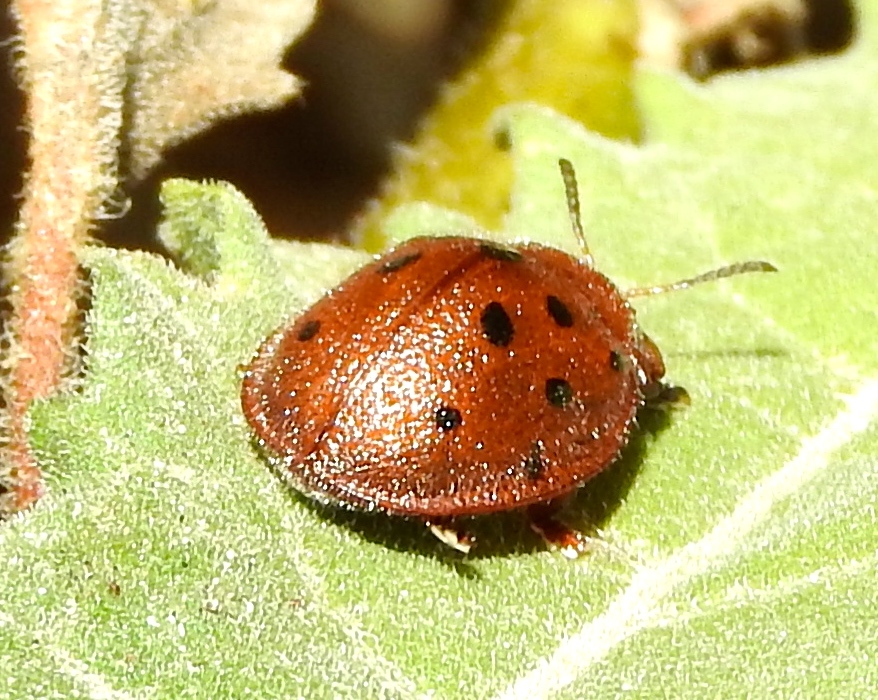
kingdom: Animalia
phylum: Arthropoda
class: Insecta
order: Coleoptera
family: Chrysomelidae
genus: Chelymorpha
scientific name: Chelymorpha
